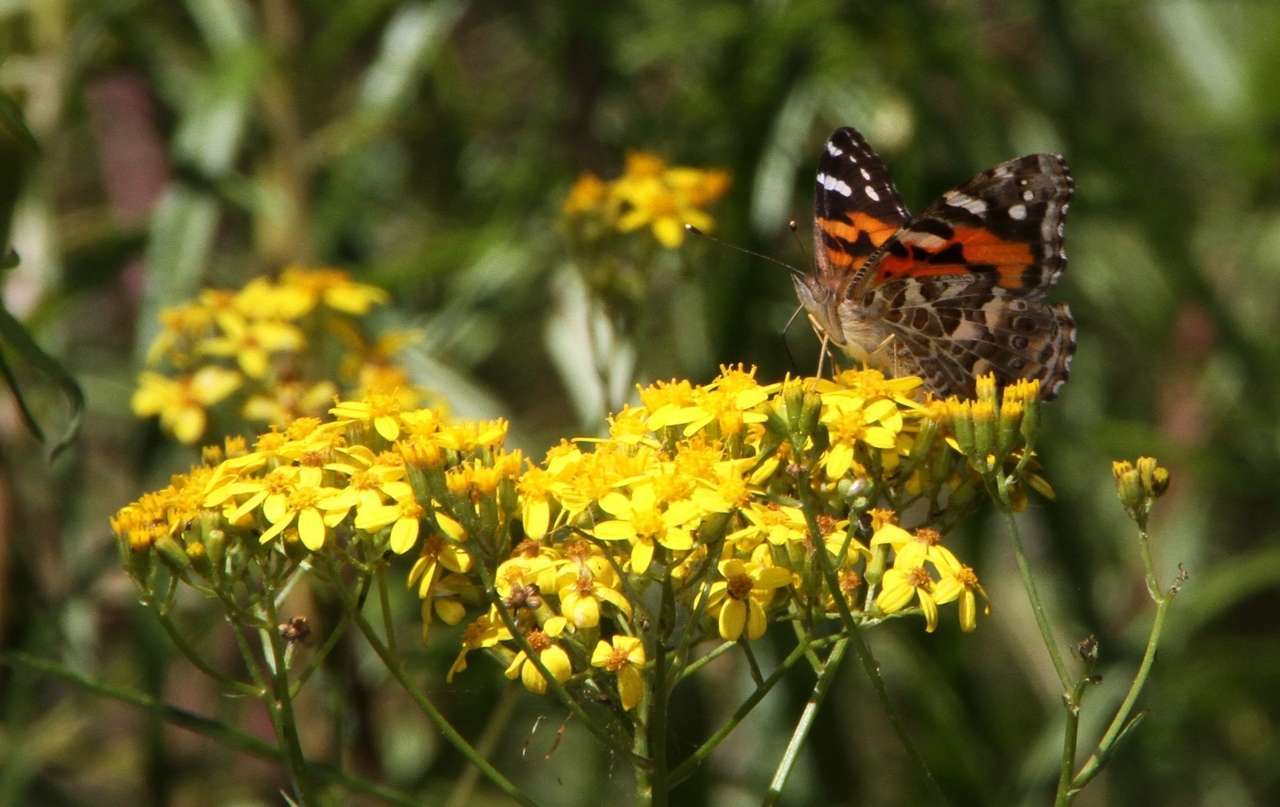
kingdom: Animalia
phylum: Arthropoda
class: Insecta
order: Lepidoptera
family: Nymphalidae
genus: Vanessa
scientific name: Vanessa kershawi
